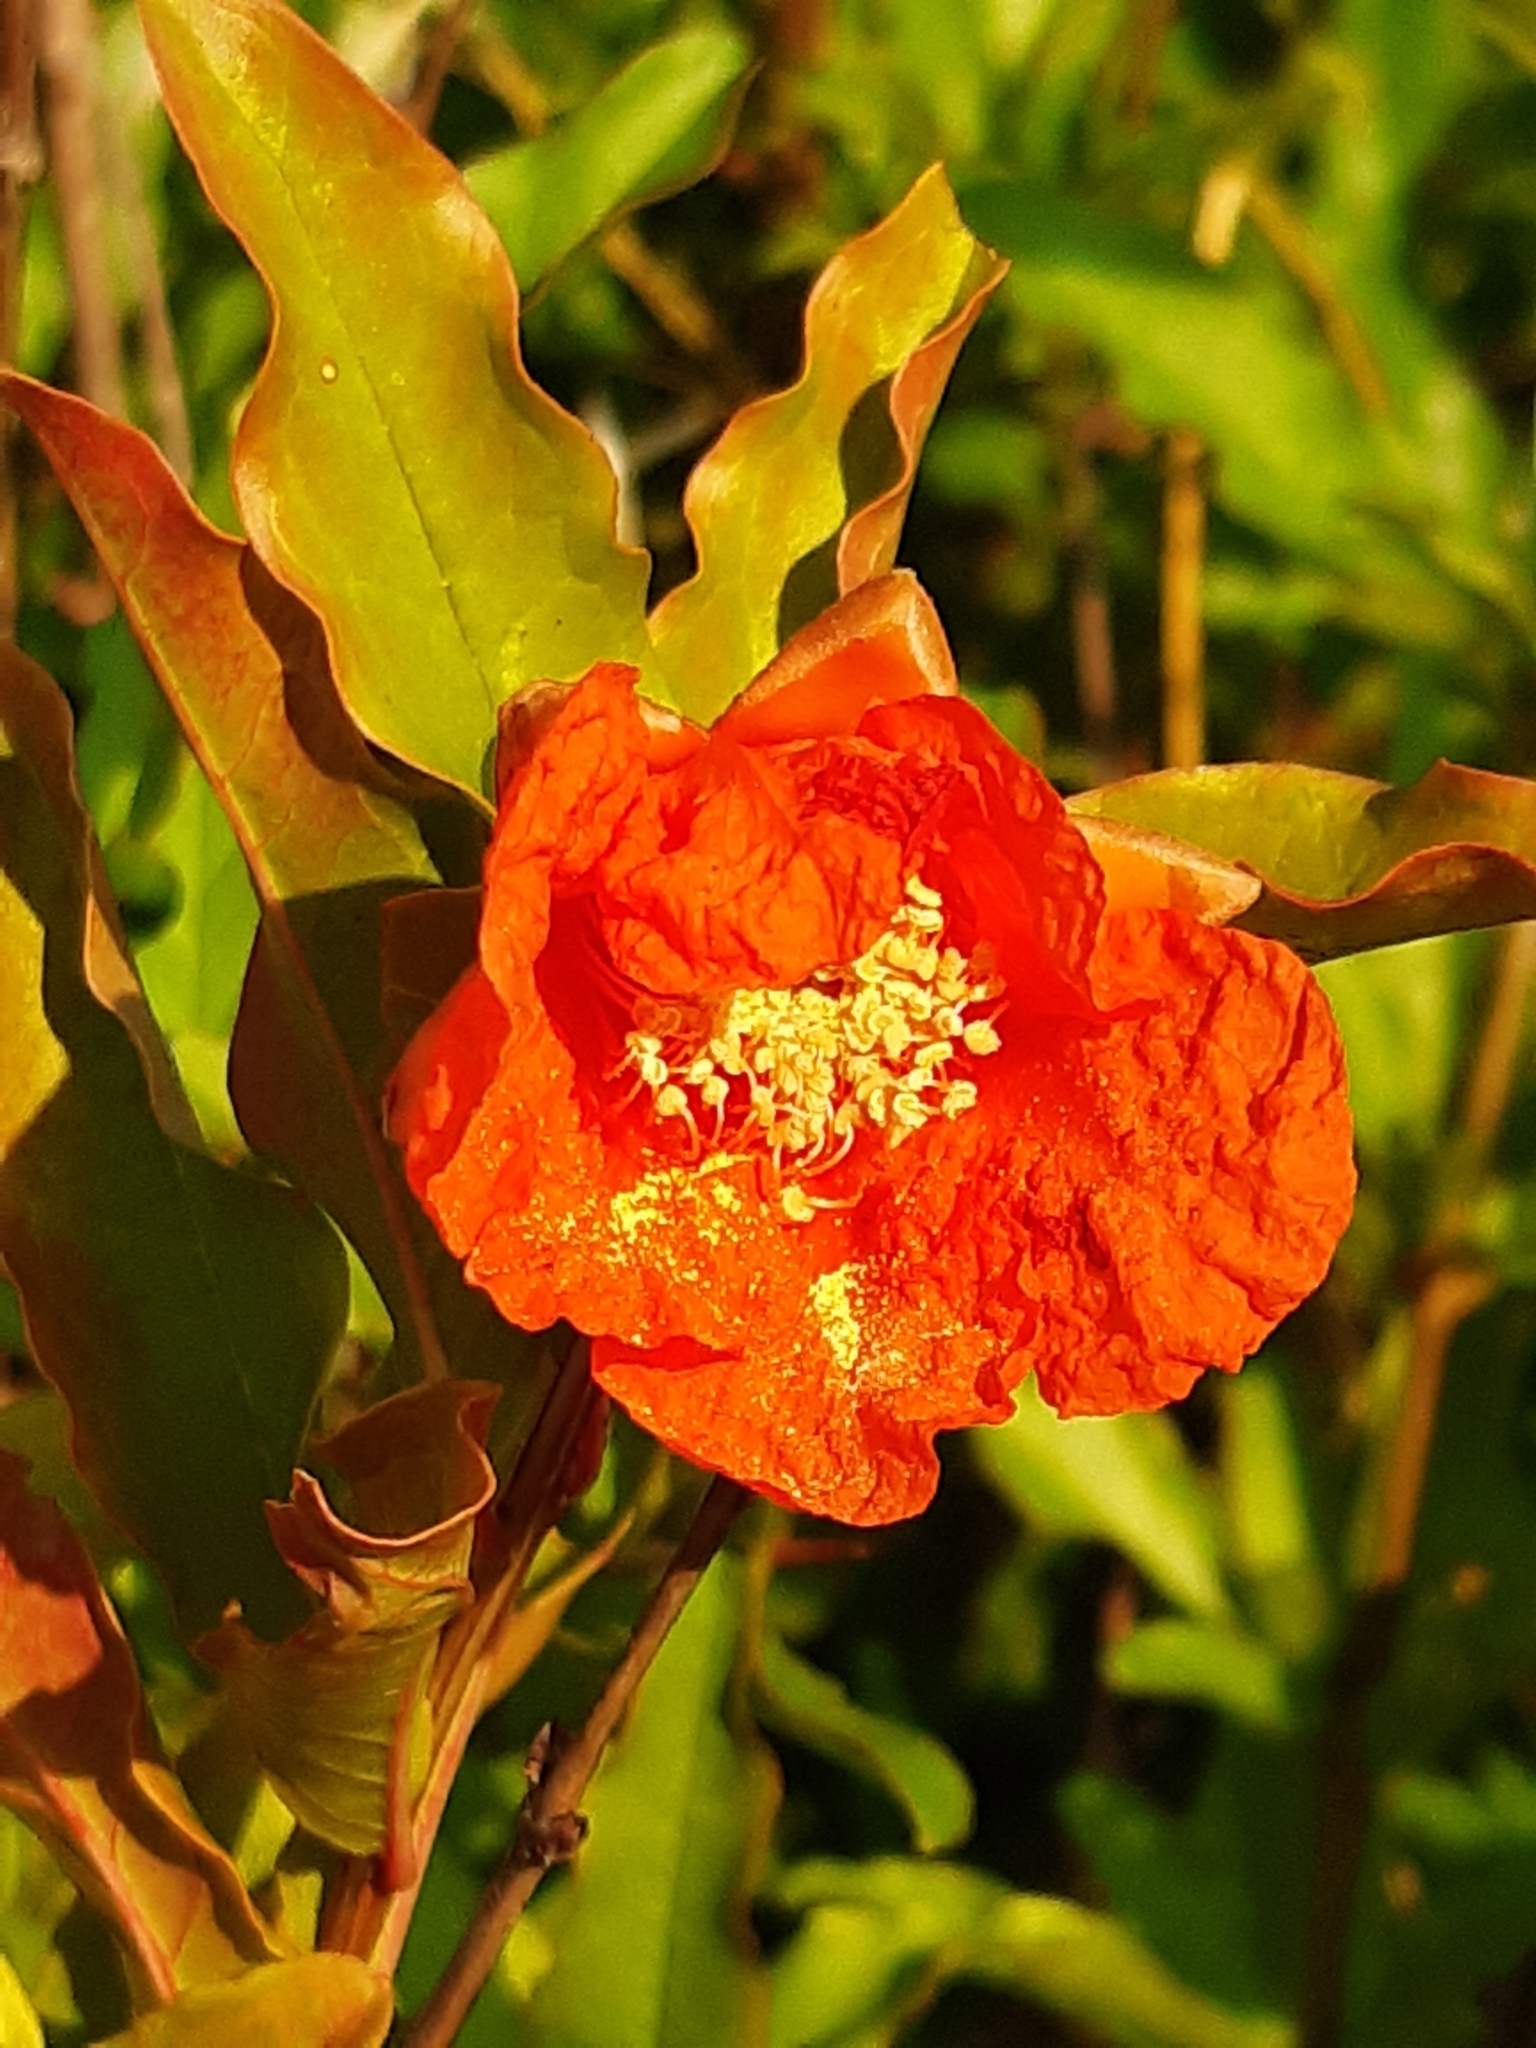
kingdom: Plantae
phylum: Tracheophyta
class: Magnoliopsida
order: Myrtales
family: Lythraceae
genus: Punica
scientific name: Punica granatum
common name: Pomegranate
